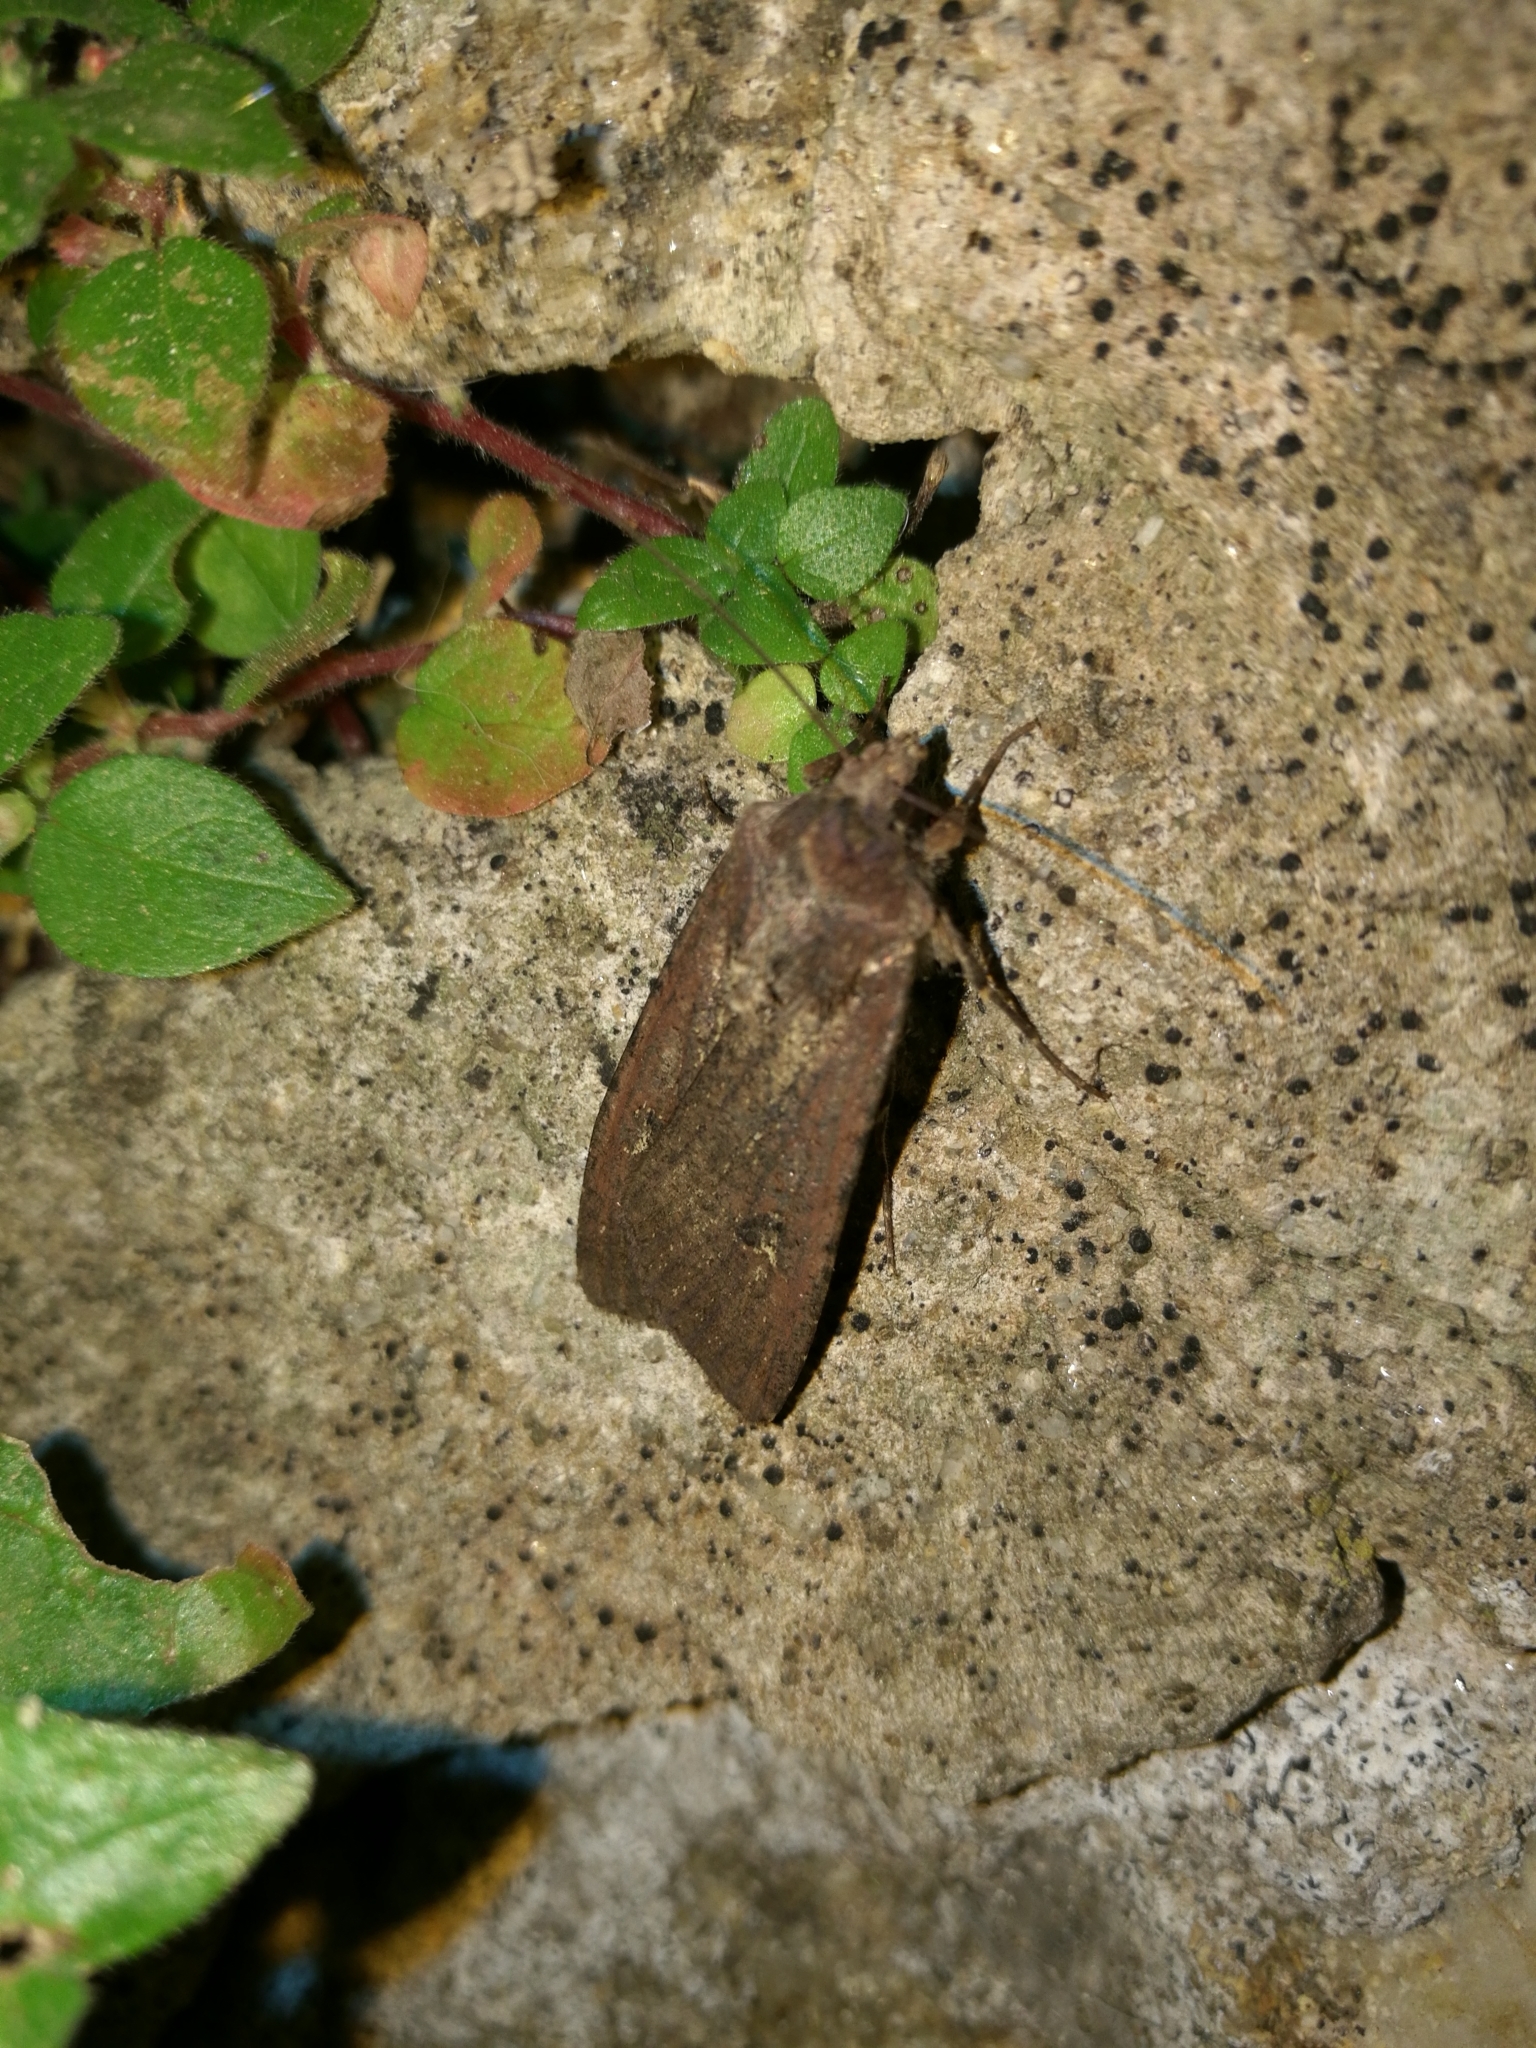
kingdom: Animalia
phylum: Arthropoda
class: Insecta
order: Lepidoptera
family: Noctuidae
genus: Peridroma
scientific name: Peridroma saucia
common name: Pearly underwing
